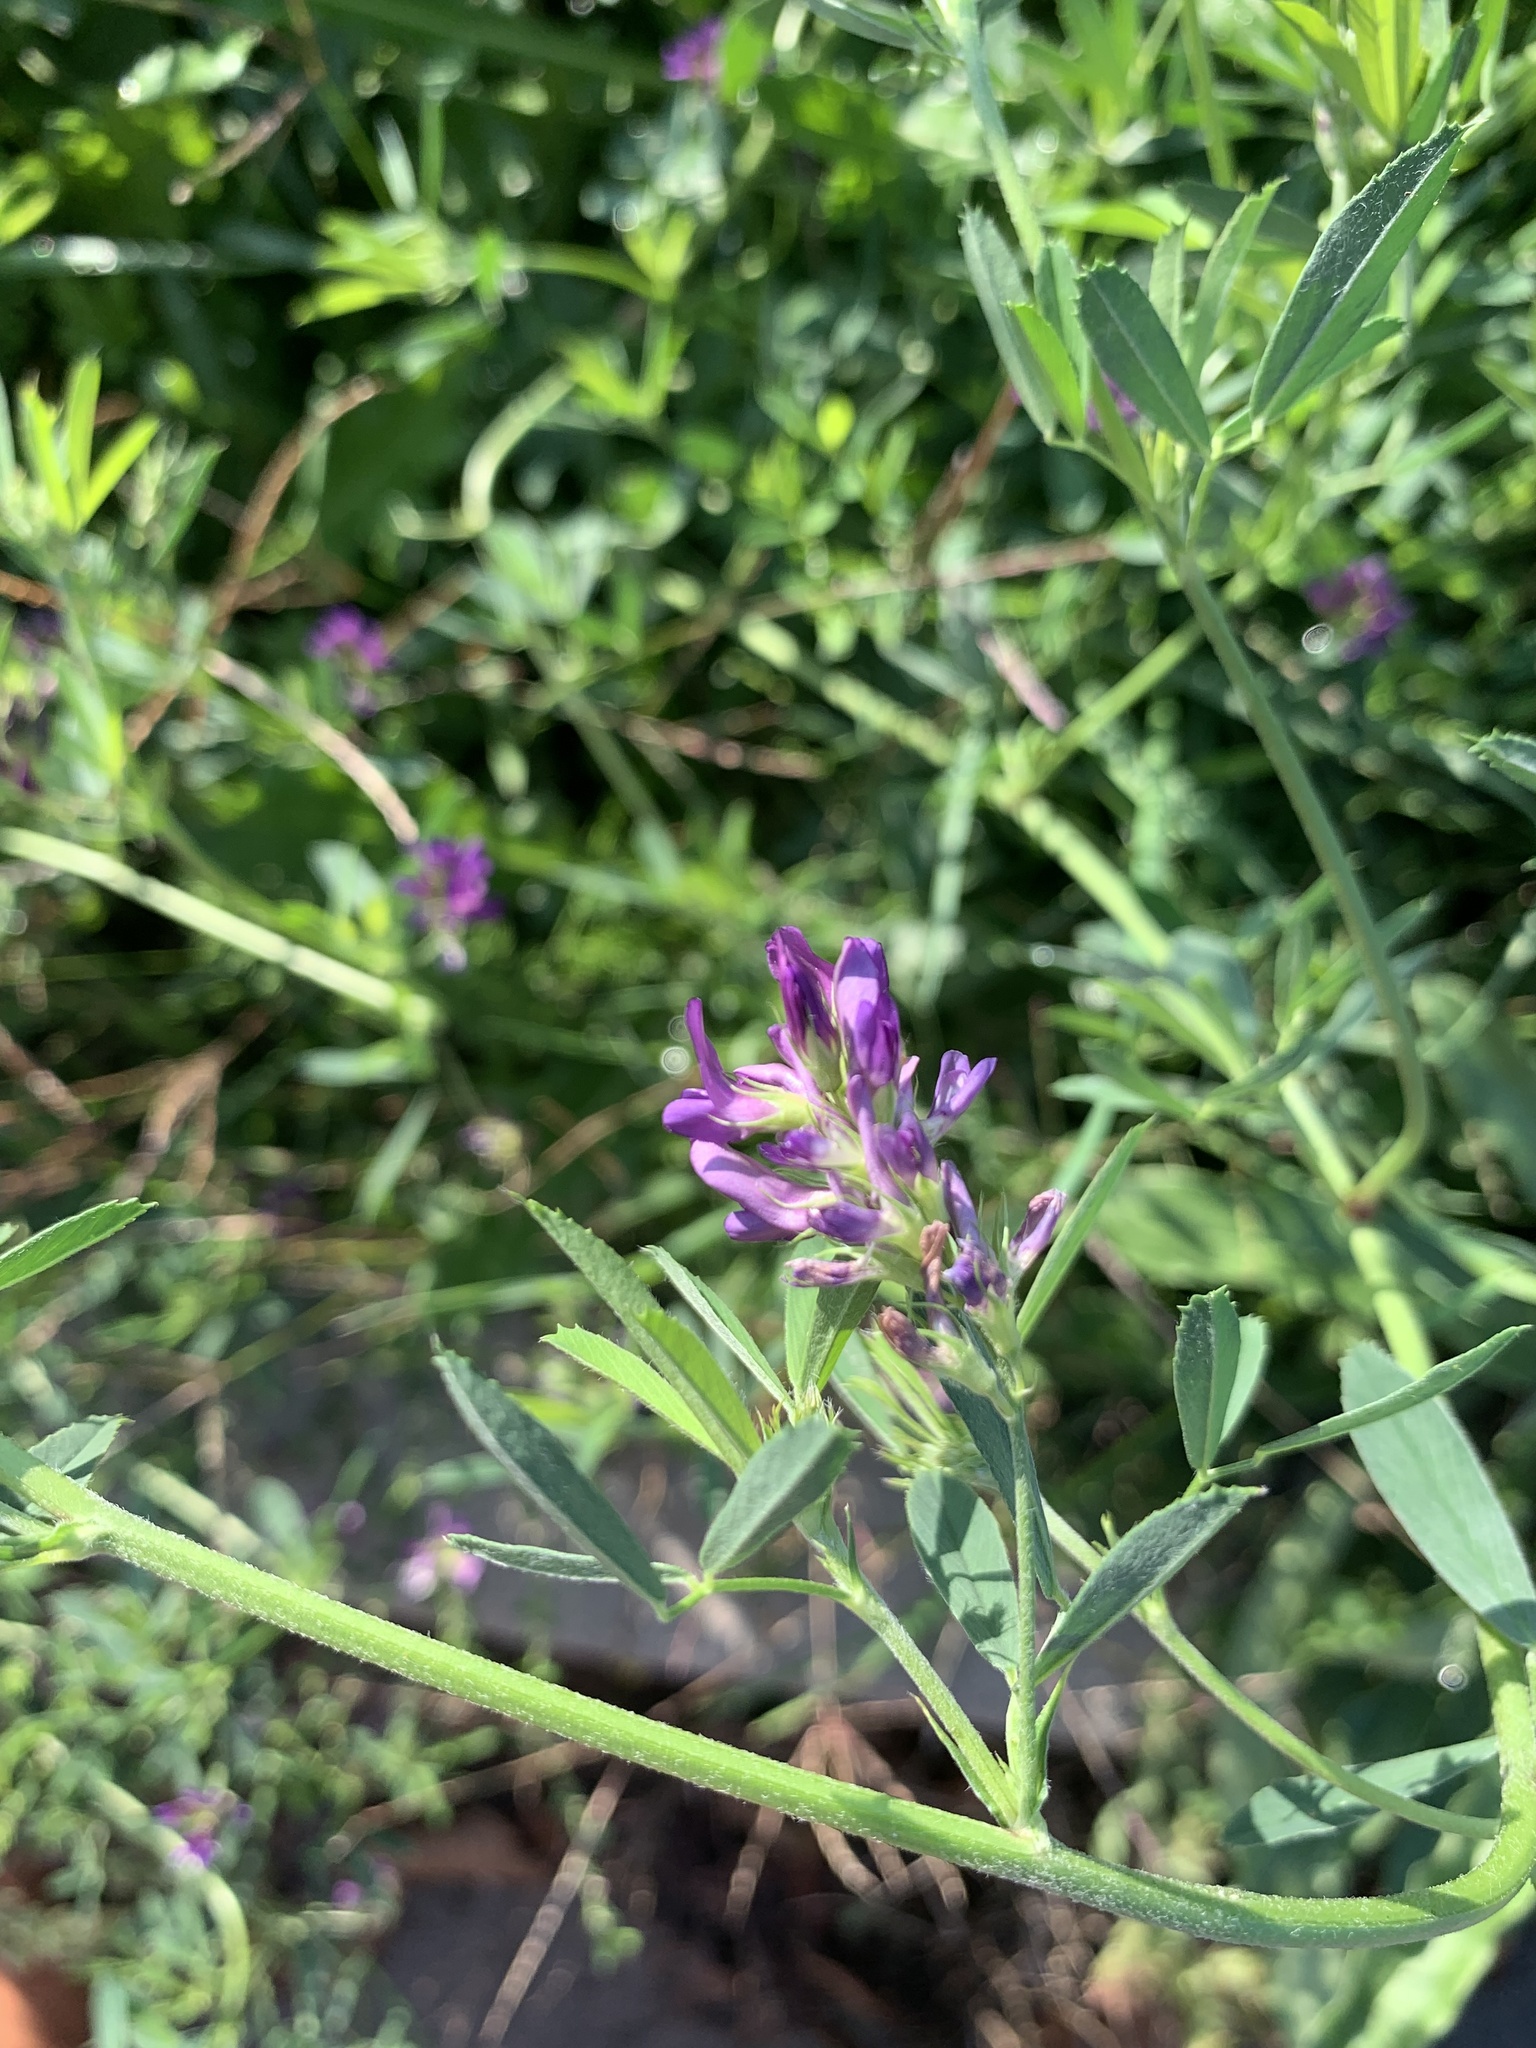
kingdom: Plantae
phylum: Tracheophyta
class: Magnoliopsida
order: Fabales
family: Fabaceae
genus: Medicago
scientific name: Medicago sativa
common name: Alfalfa
